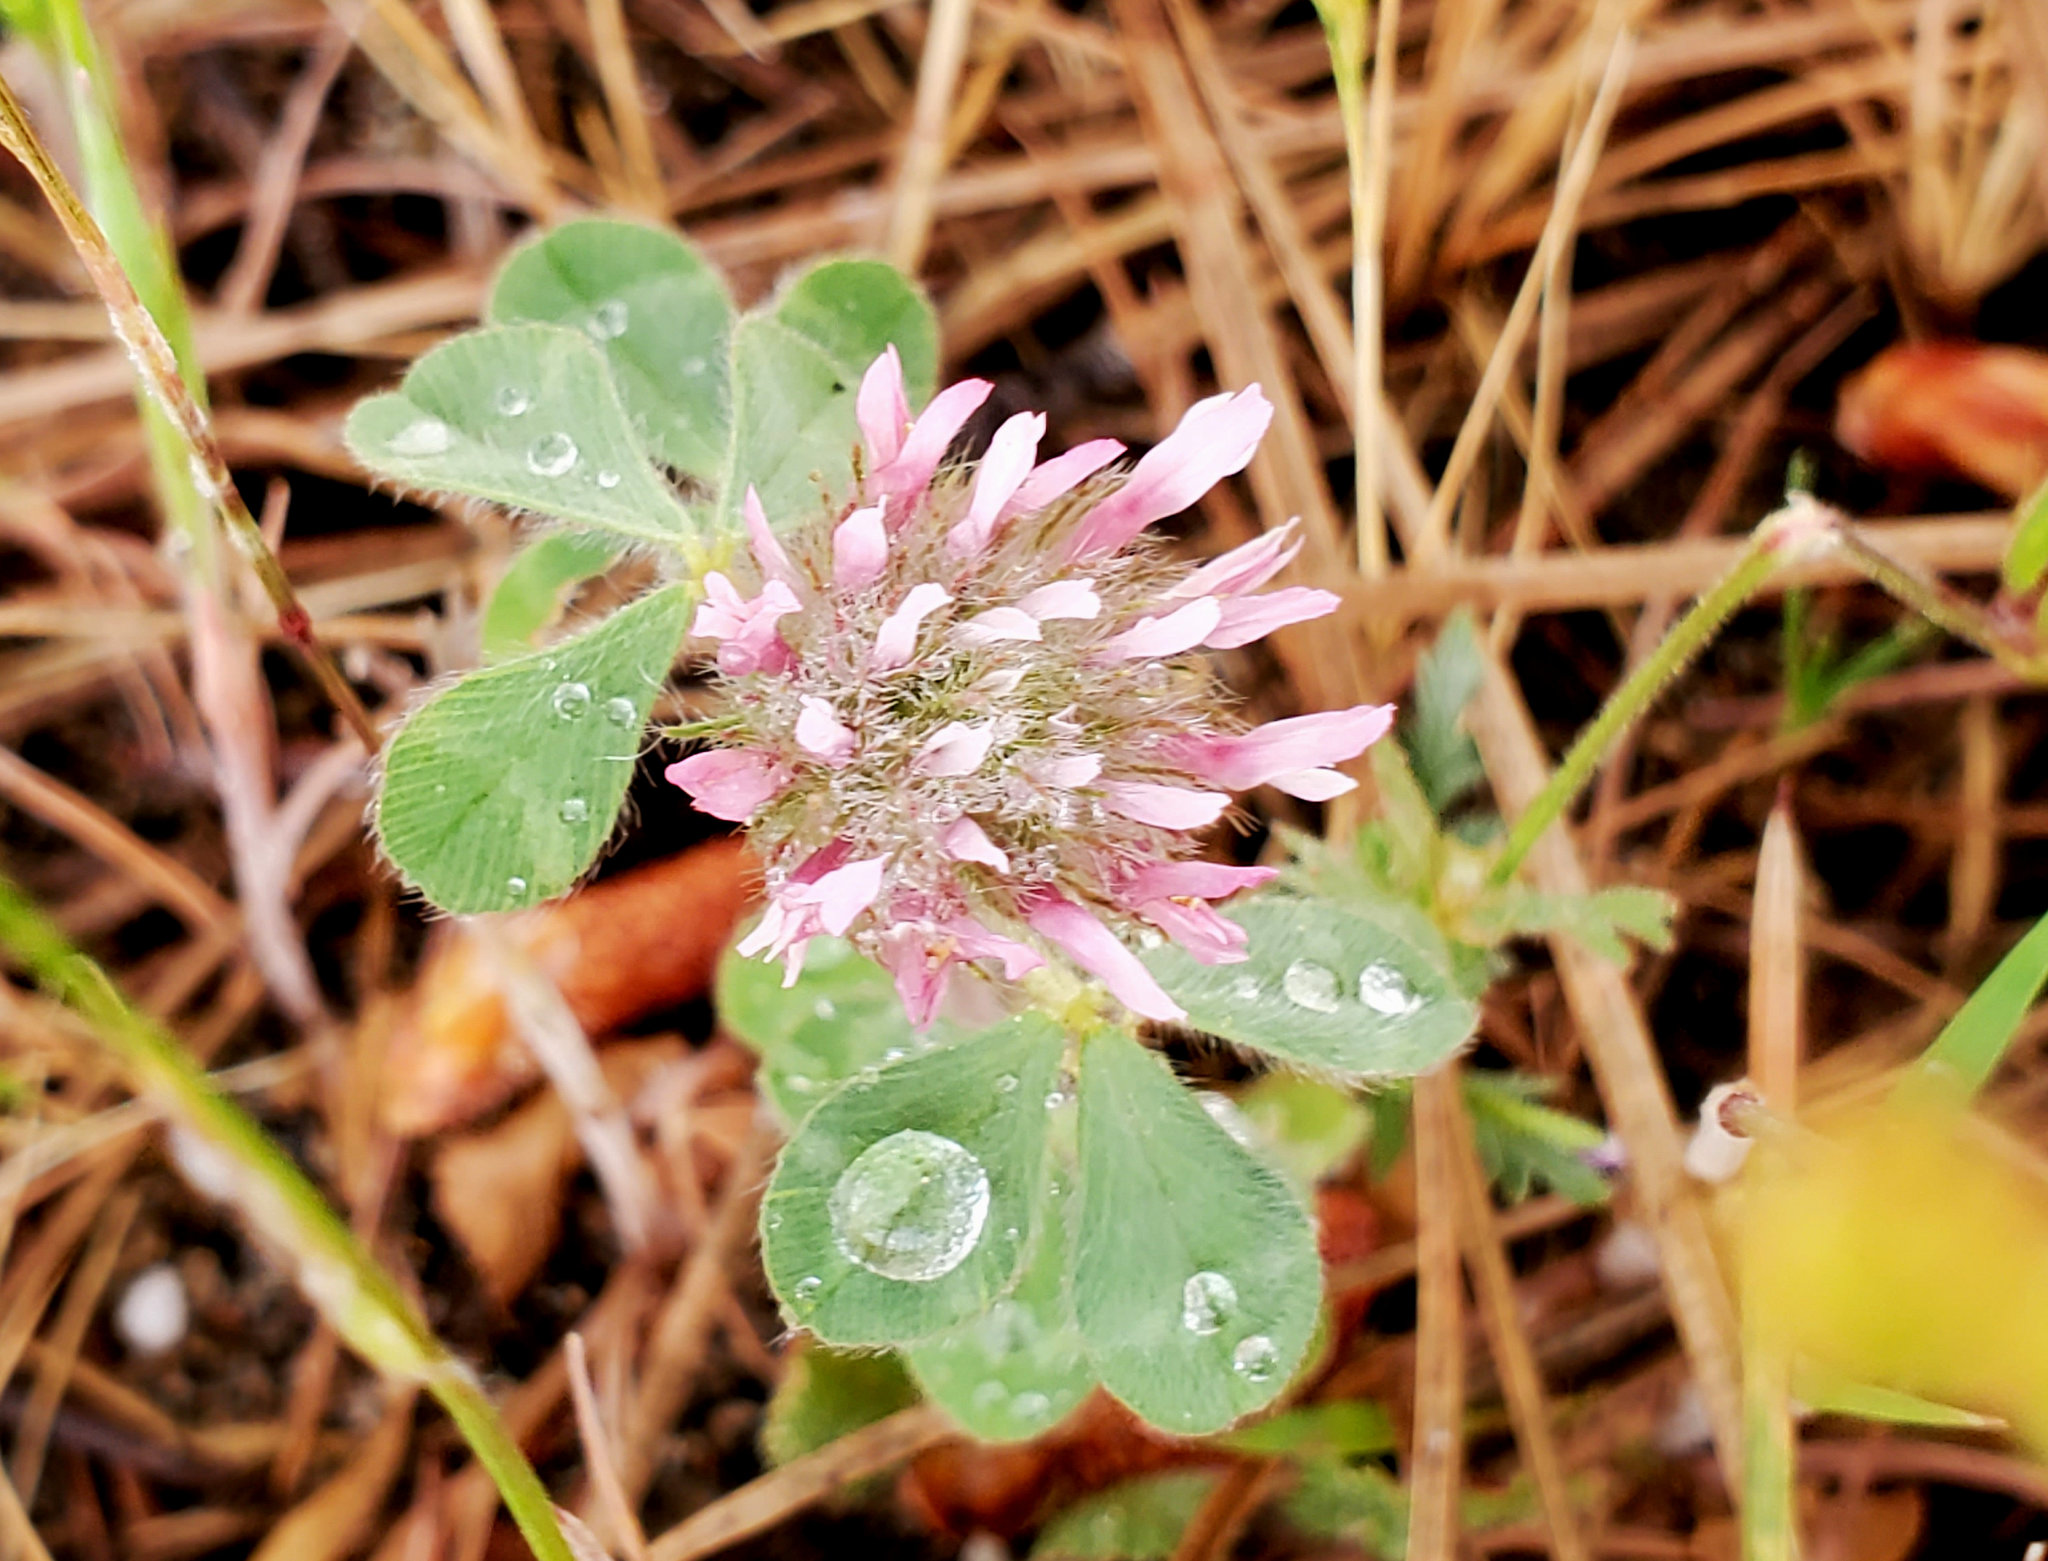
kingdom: Plantae
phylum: Tracheophyta
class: Magnoliopsida
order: Fabales
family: Fabaceae
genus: Trifolium
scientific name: Trifolium hirtum
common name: Rose clover
